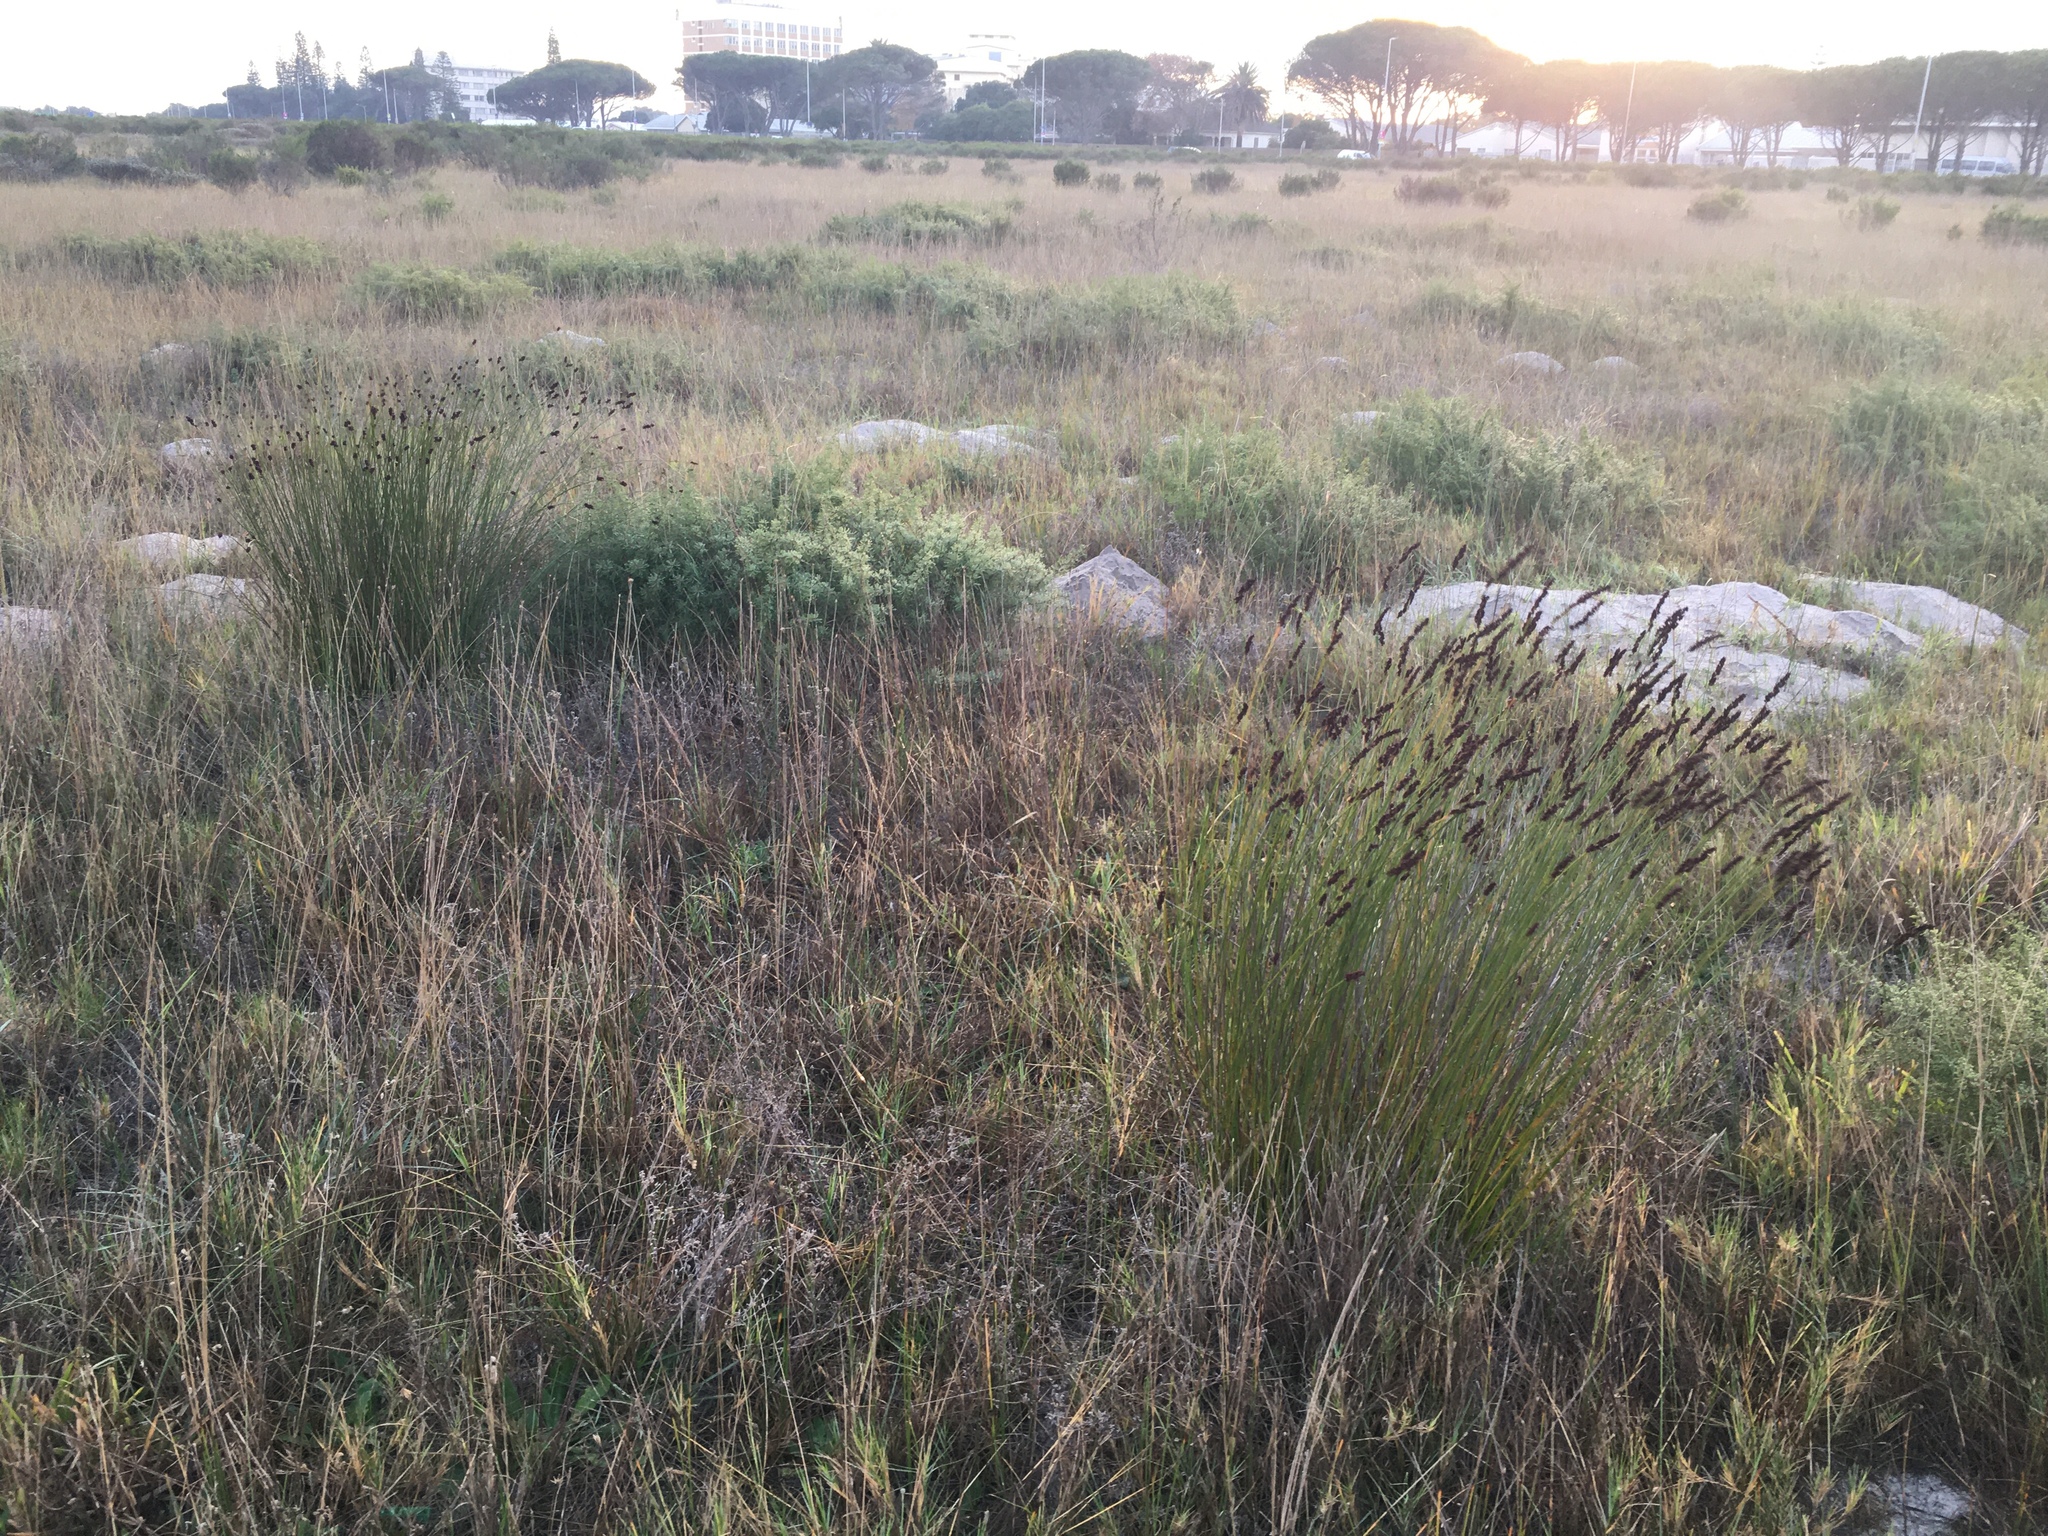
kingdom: Plantae
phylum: Tracheophyta
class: Liliopsida
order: Poales
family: Restionaceae
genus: Elegia
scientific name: Elegia nuda
